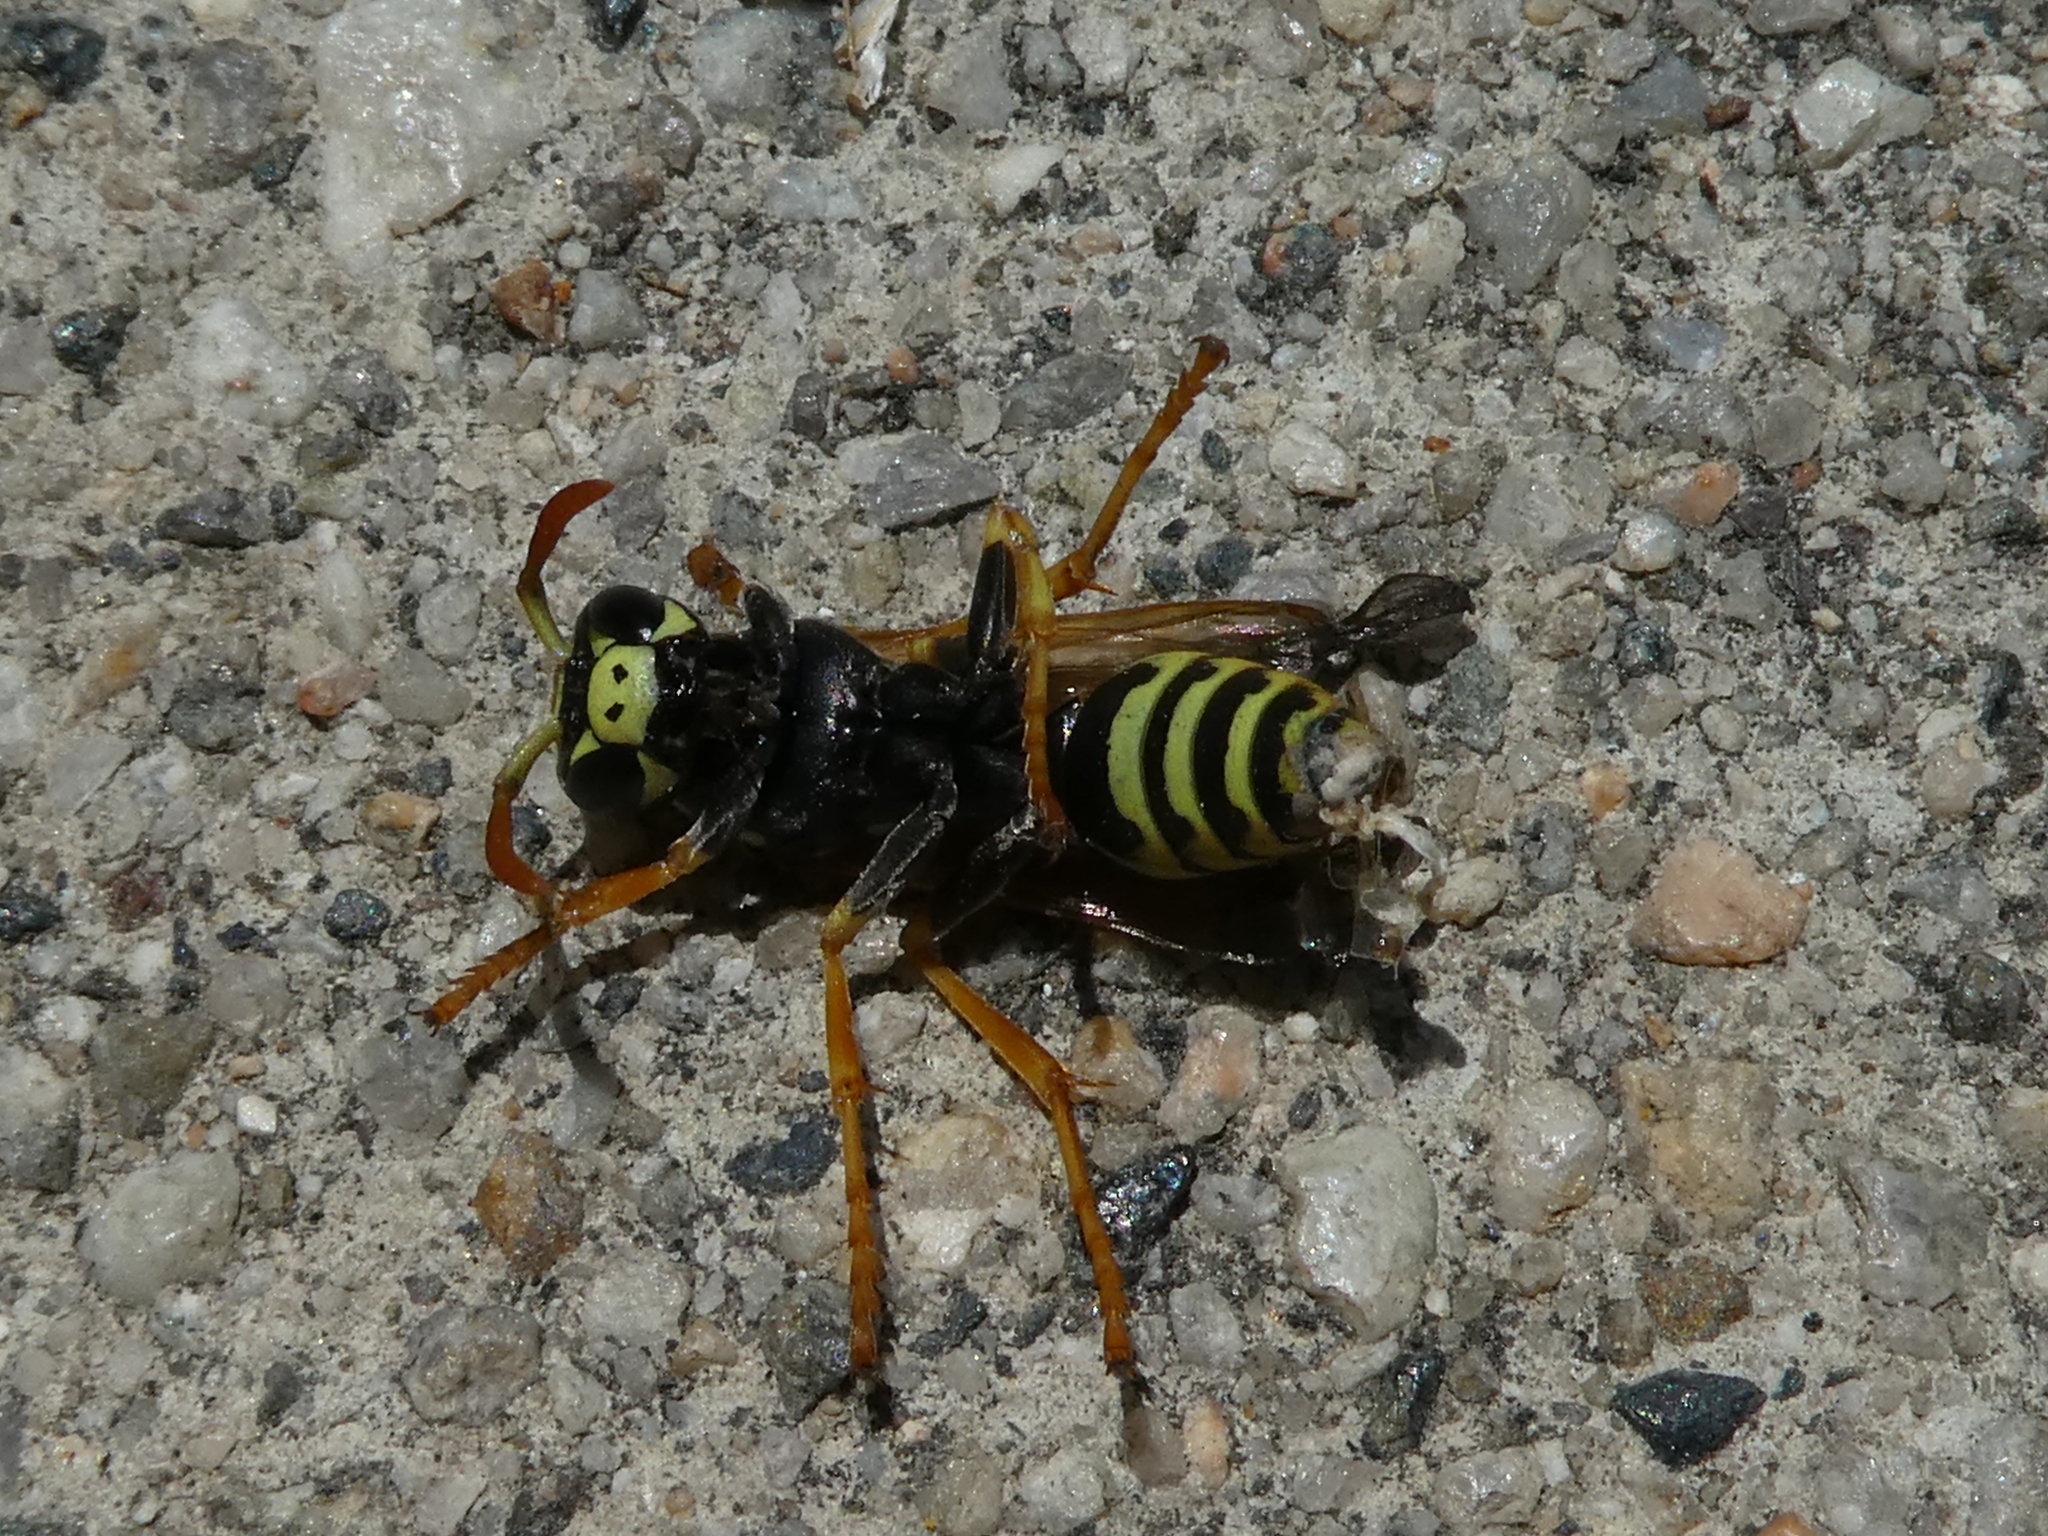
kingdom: Animalia
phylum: Arthropoda
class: Insecta
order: Hymenoptera
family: Eumenidae
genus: Polistes
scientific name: Polistes dominula
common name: Paper wasp
